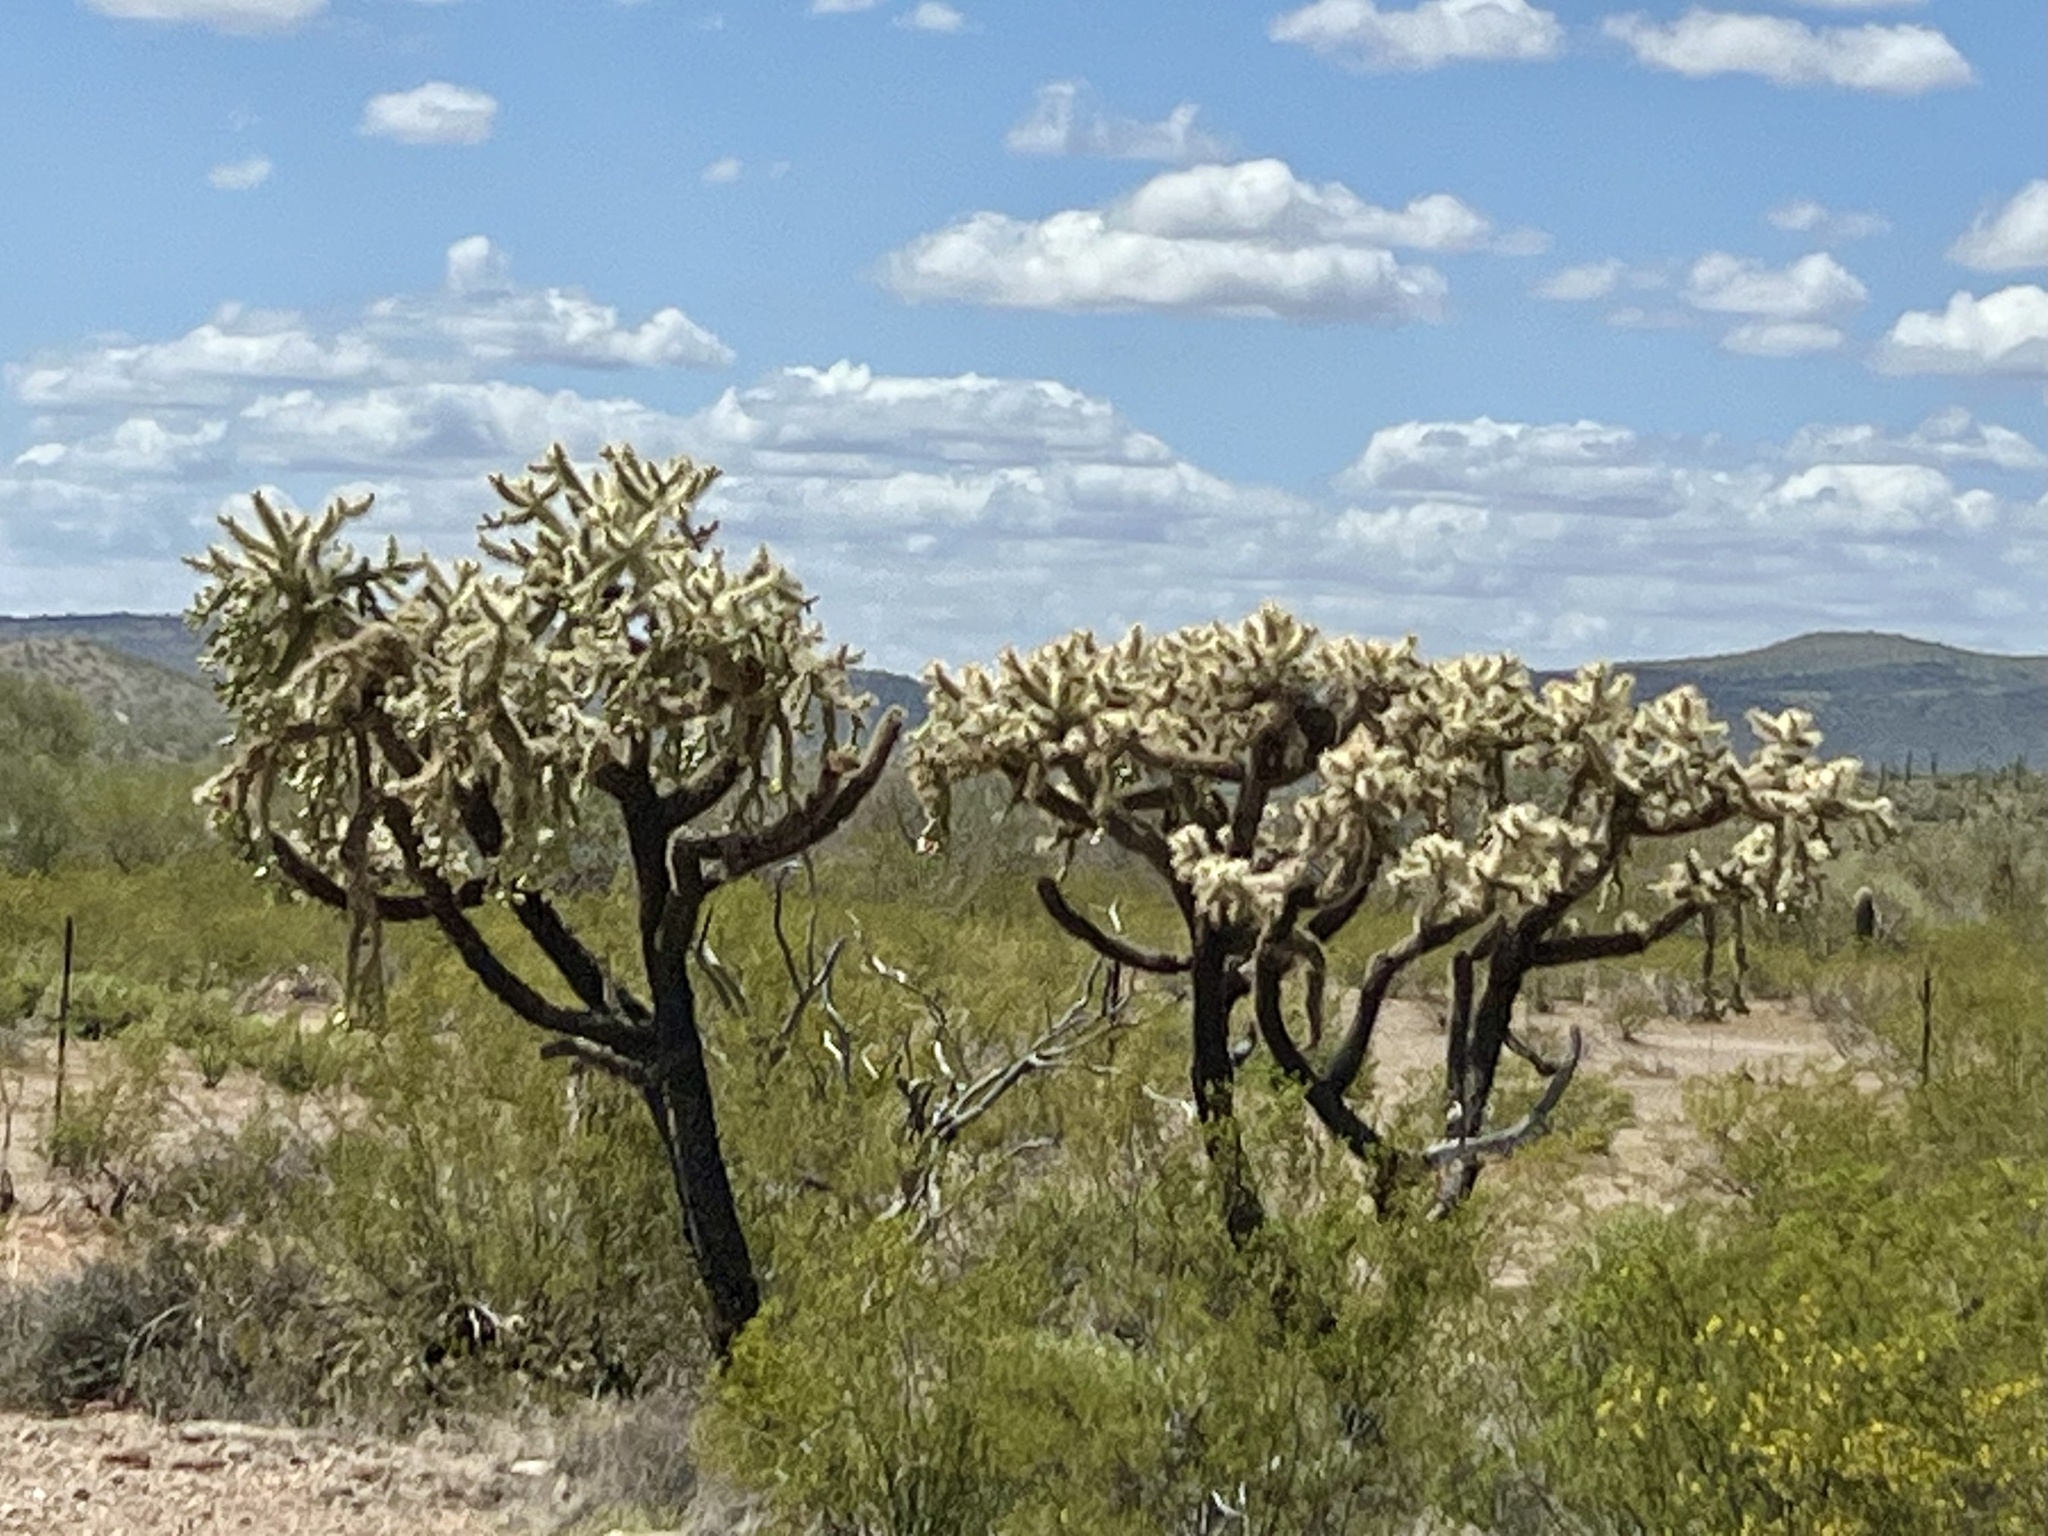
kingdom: Plantae
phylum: Tracheophyta
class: Magnoliopsida
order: Caryophyllales
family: Cactaceae
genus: Cylindropuntia
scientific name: Cylindropuntia fulgida
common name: Jumping cholla
